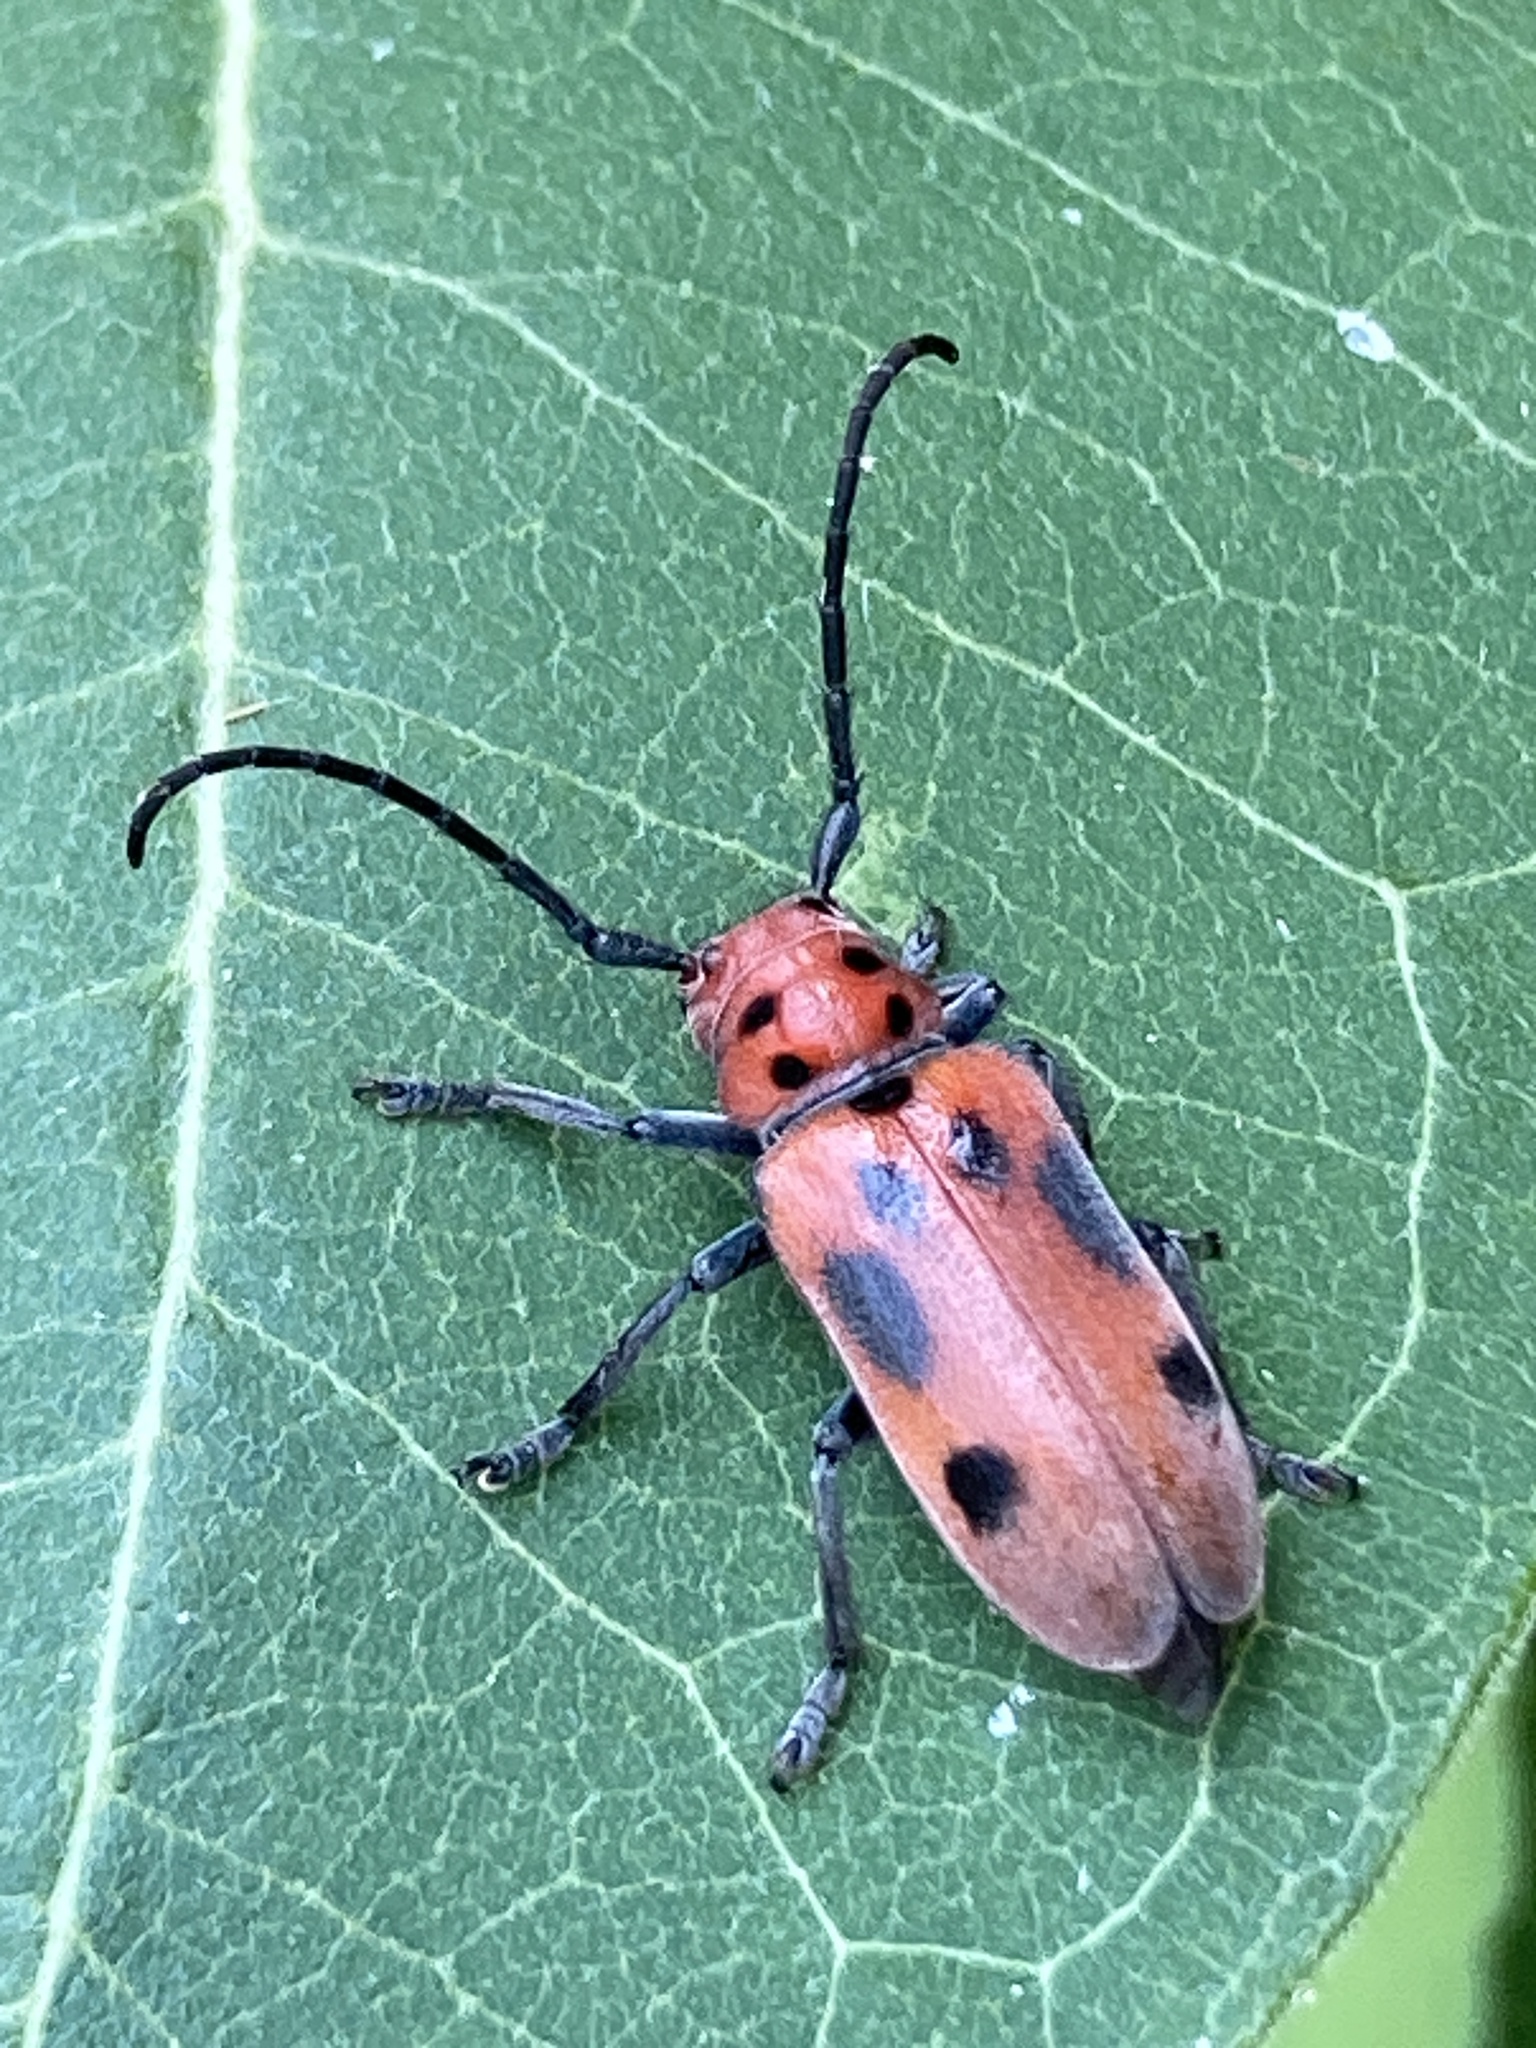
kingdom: Animalia
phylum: Arthropoda
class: Insecta
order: Coleoptera
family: Cerambycidae
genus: Tetraopes
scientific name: Tetraopes tetrophthalmus
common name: Red milkweed beetle
